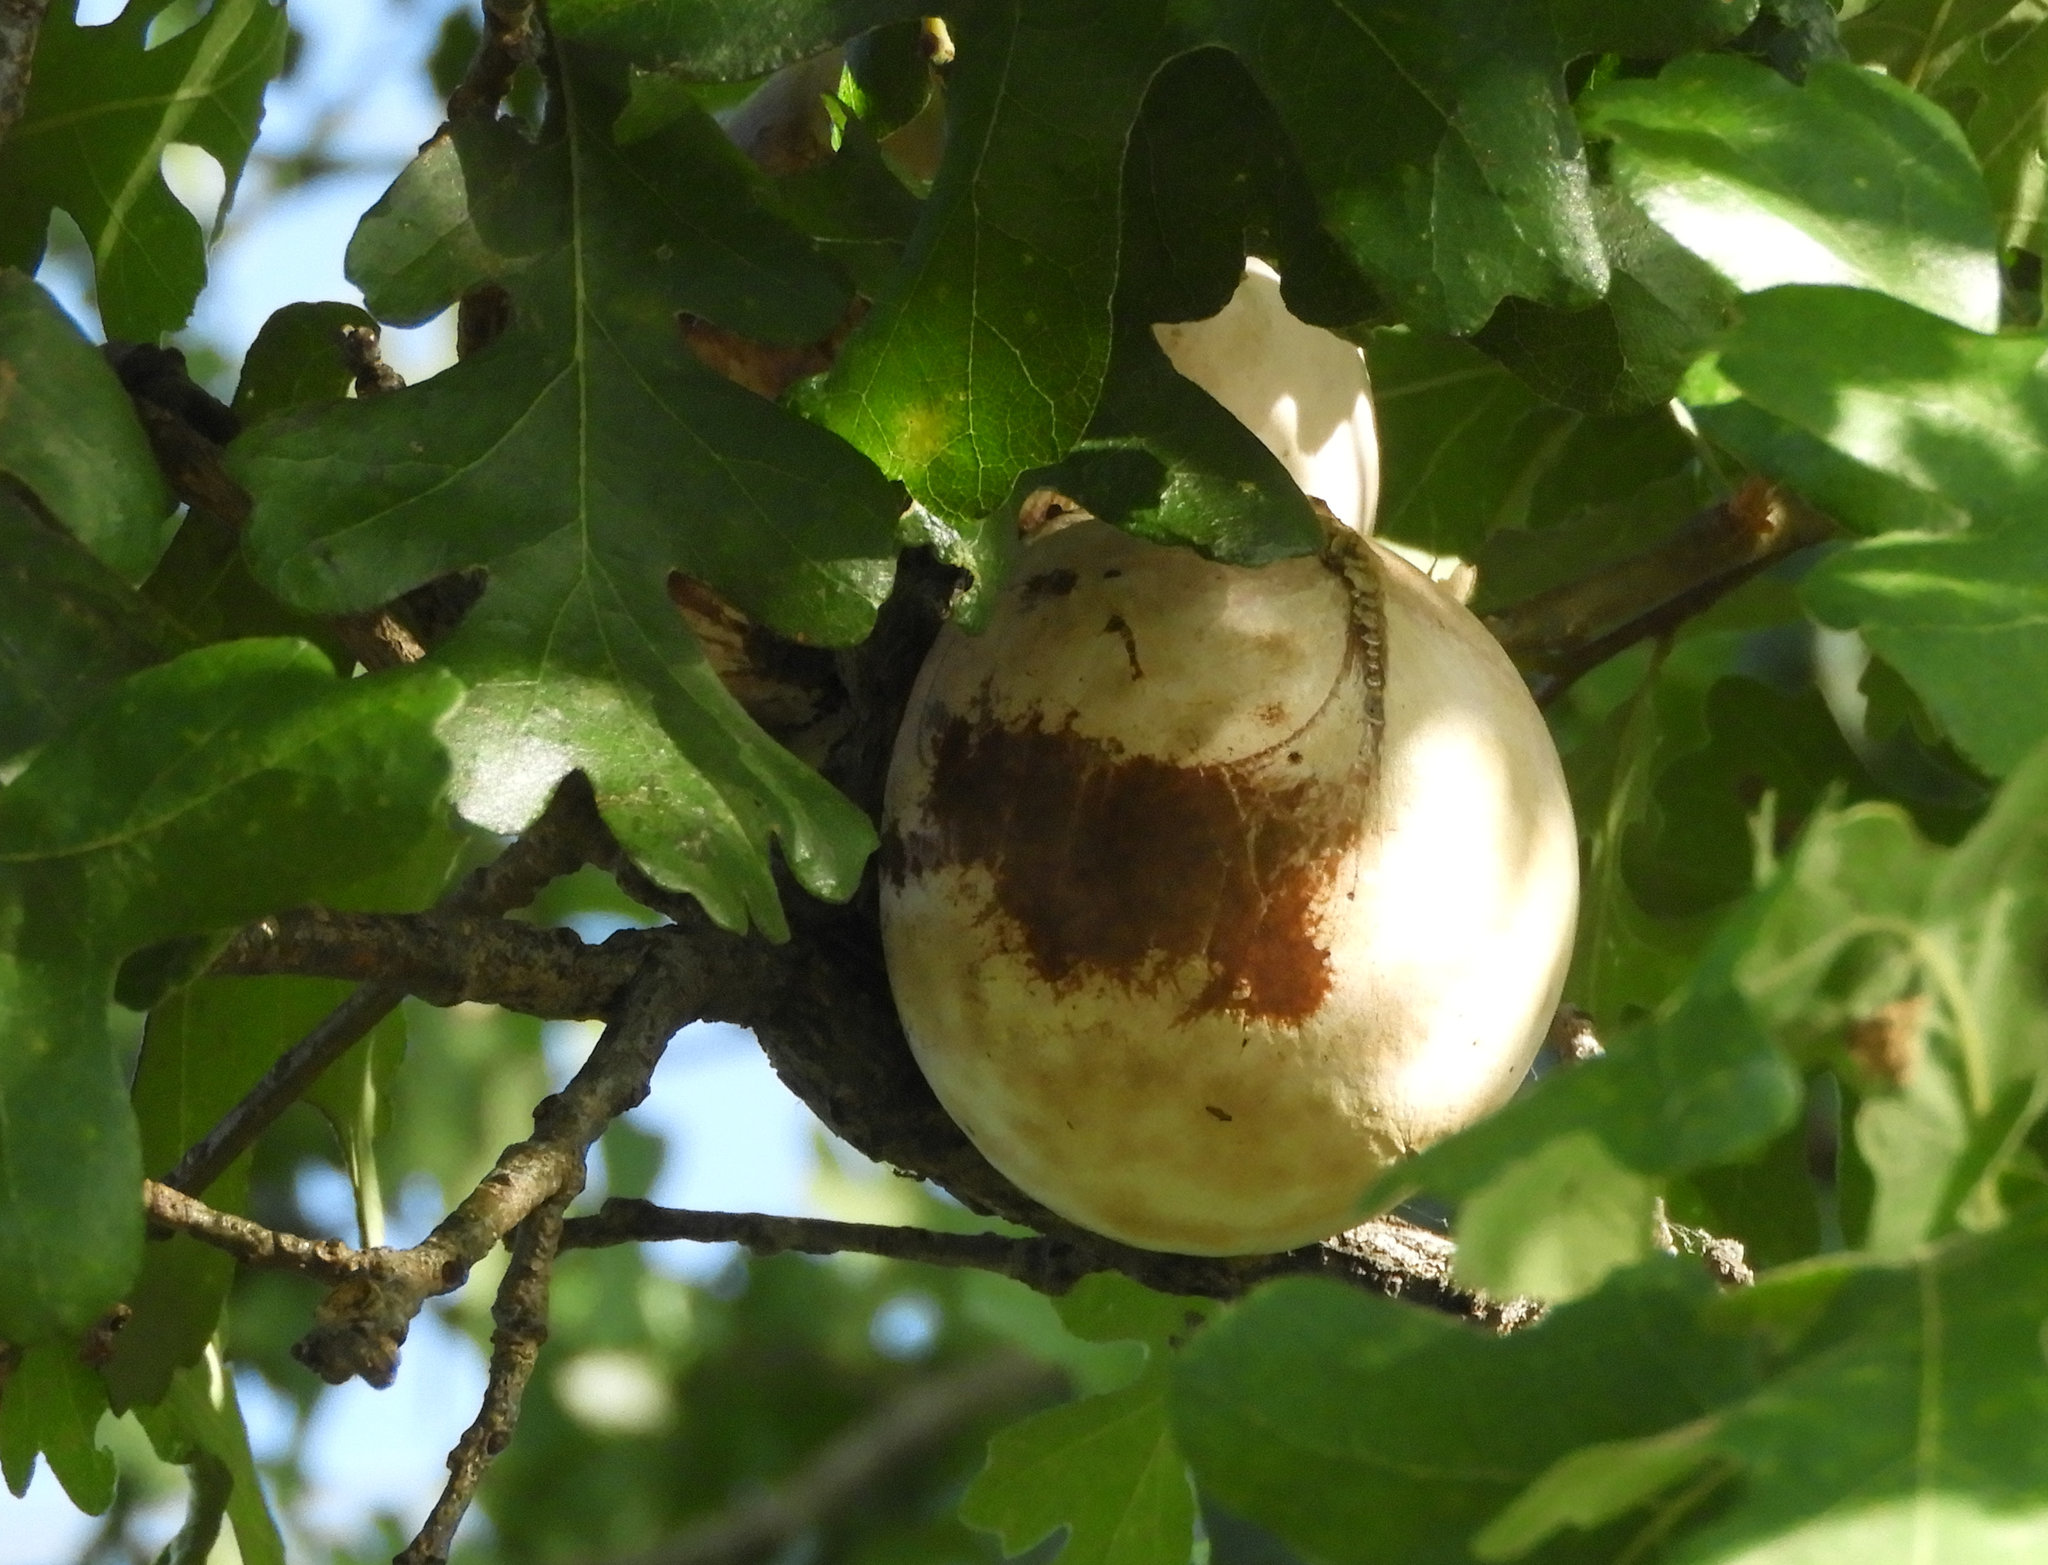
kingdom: Animalia
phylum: Arthropoda
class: Insecta
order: Hymenoptera
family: Cynipidae
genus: Andricus
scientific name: Andricus quercuscalifornicus
